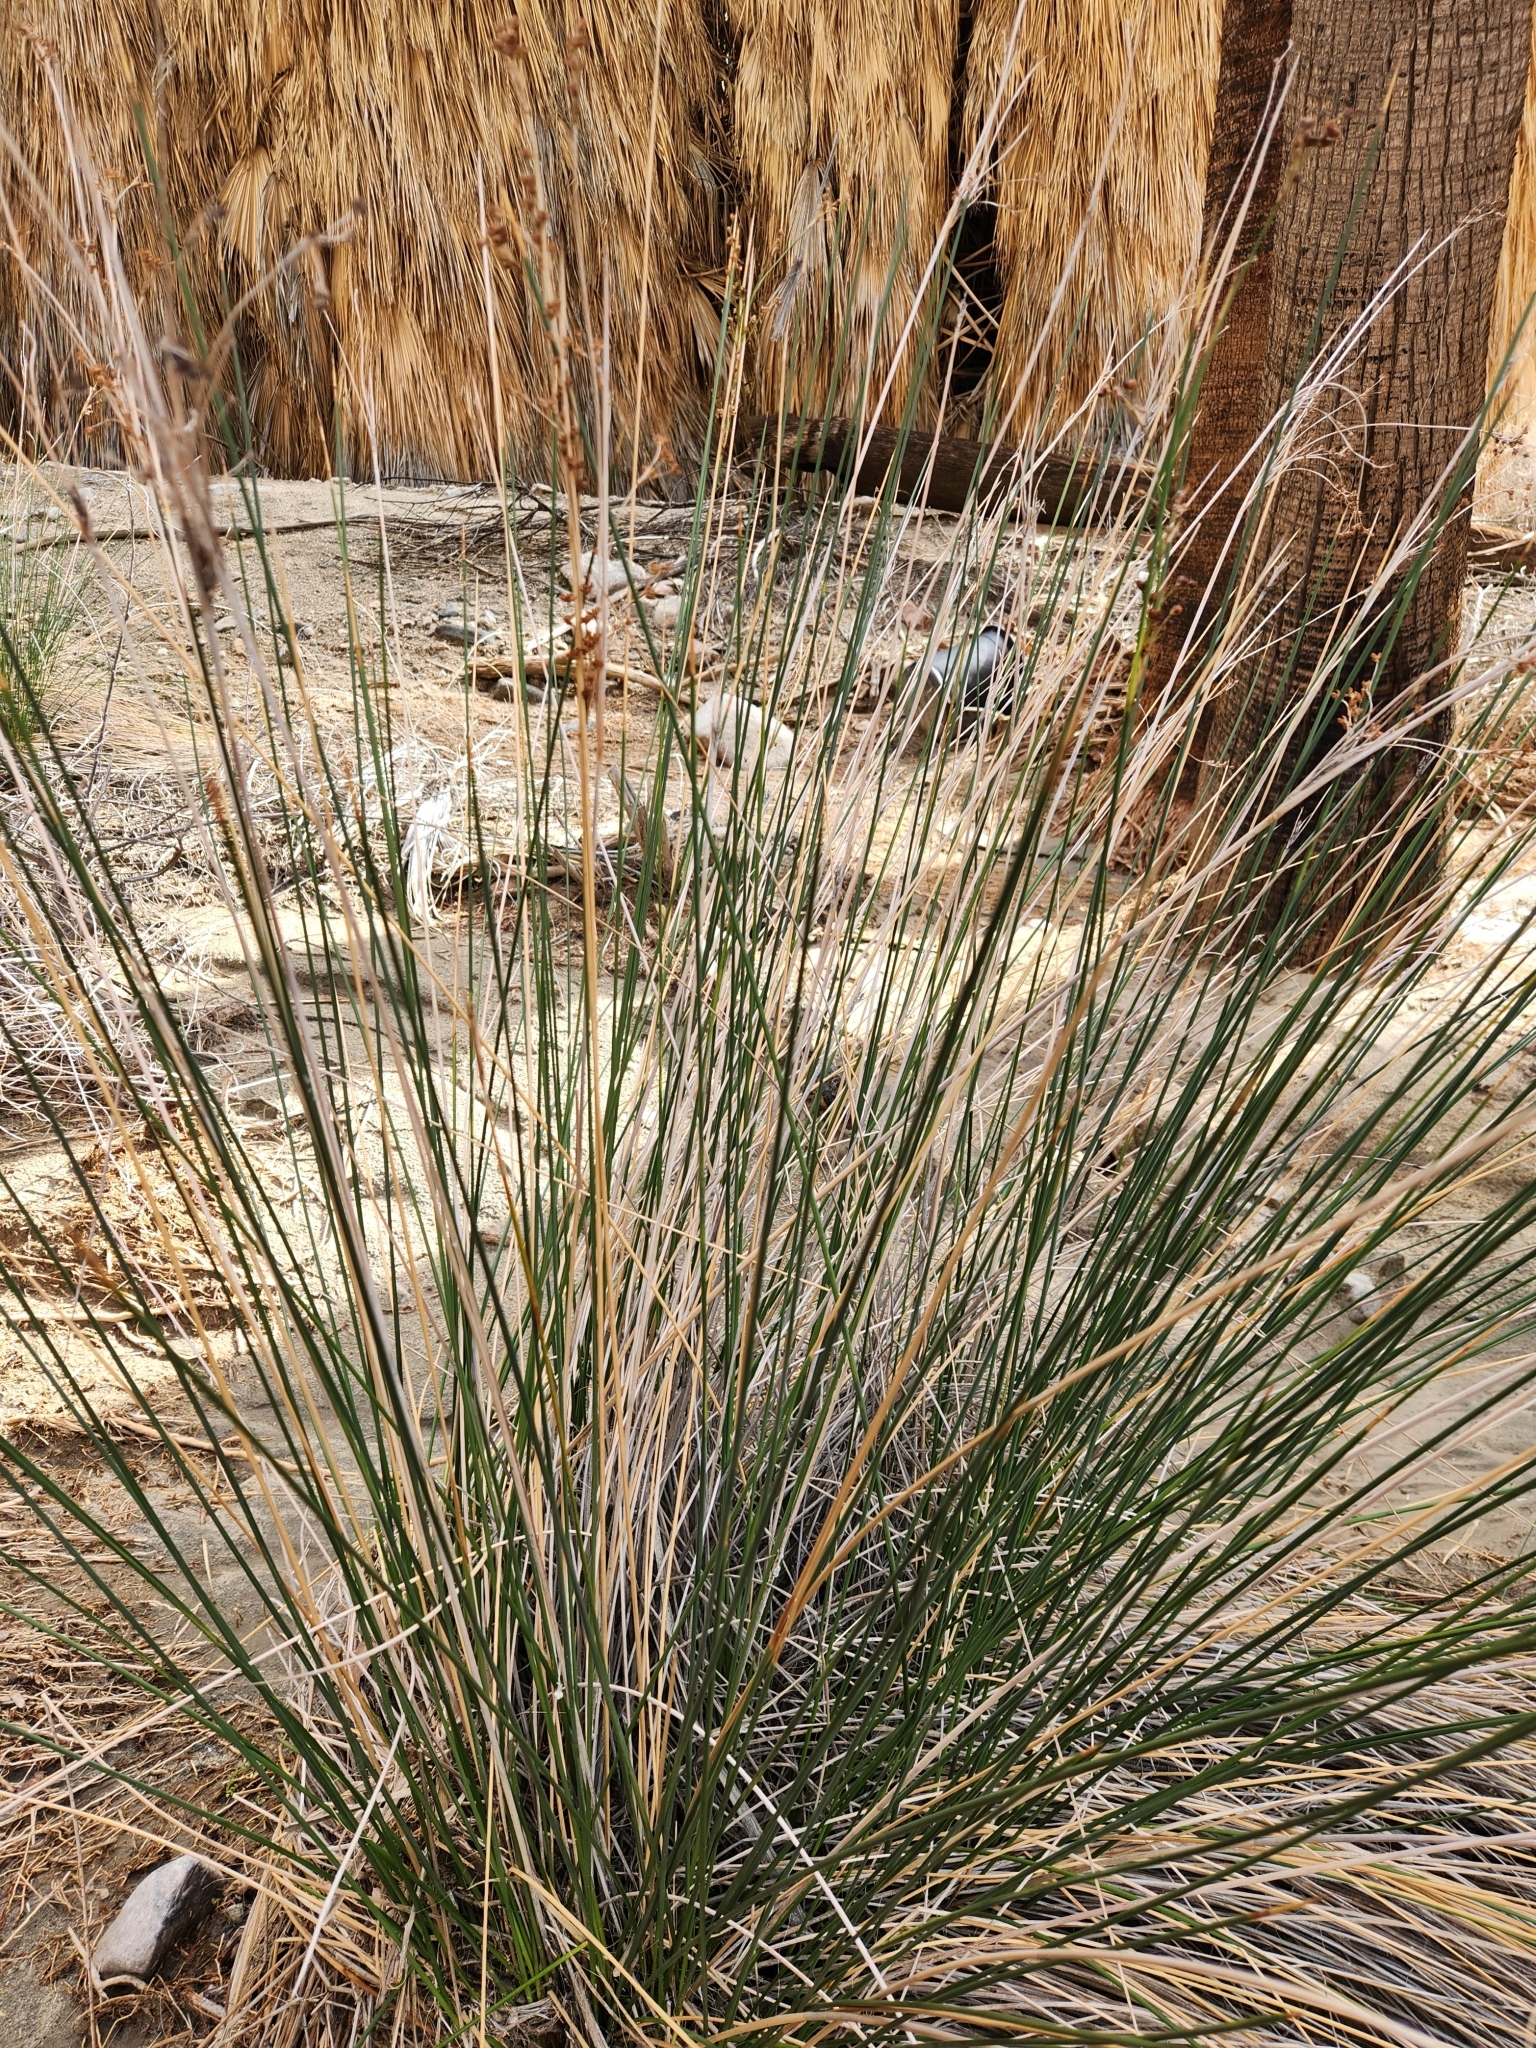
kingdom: Plantae
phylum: Tracheophyta
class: Liliopsida
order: Poales
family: Juncaceae
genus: Juncus
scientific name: Juncus acutus
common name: Sharp rush
